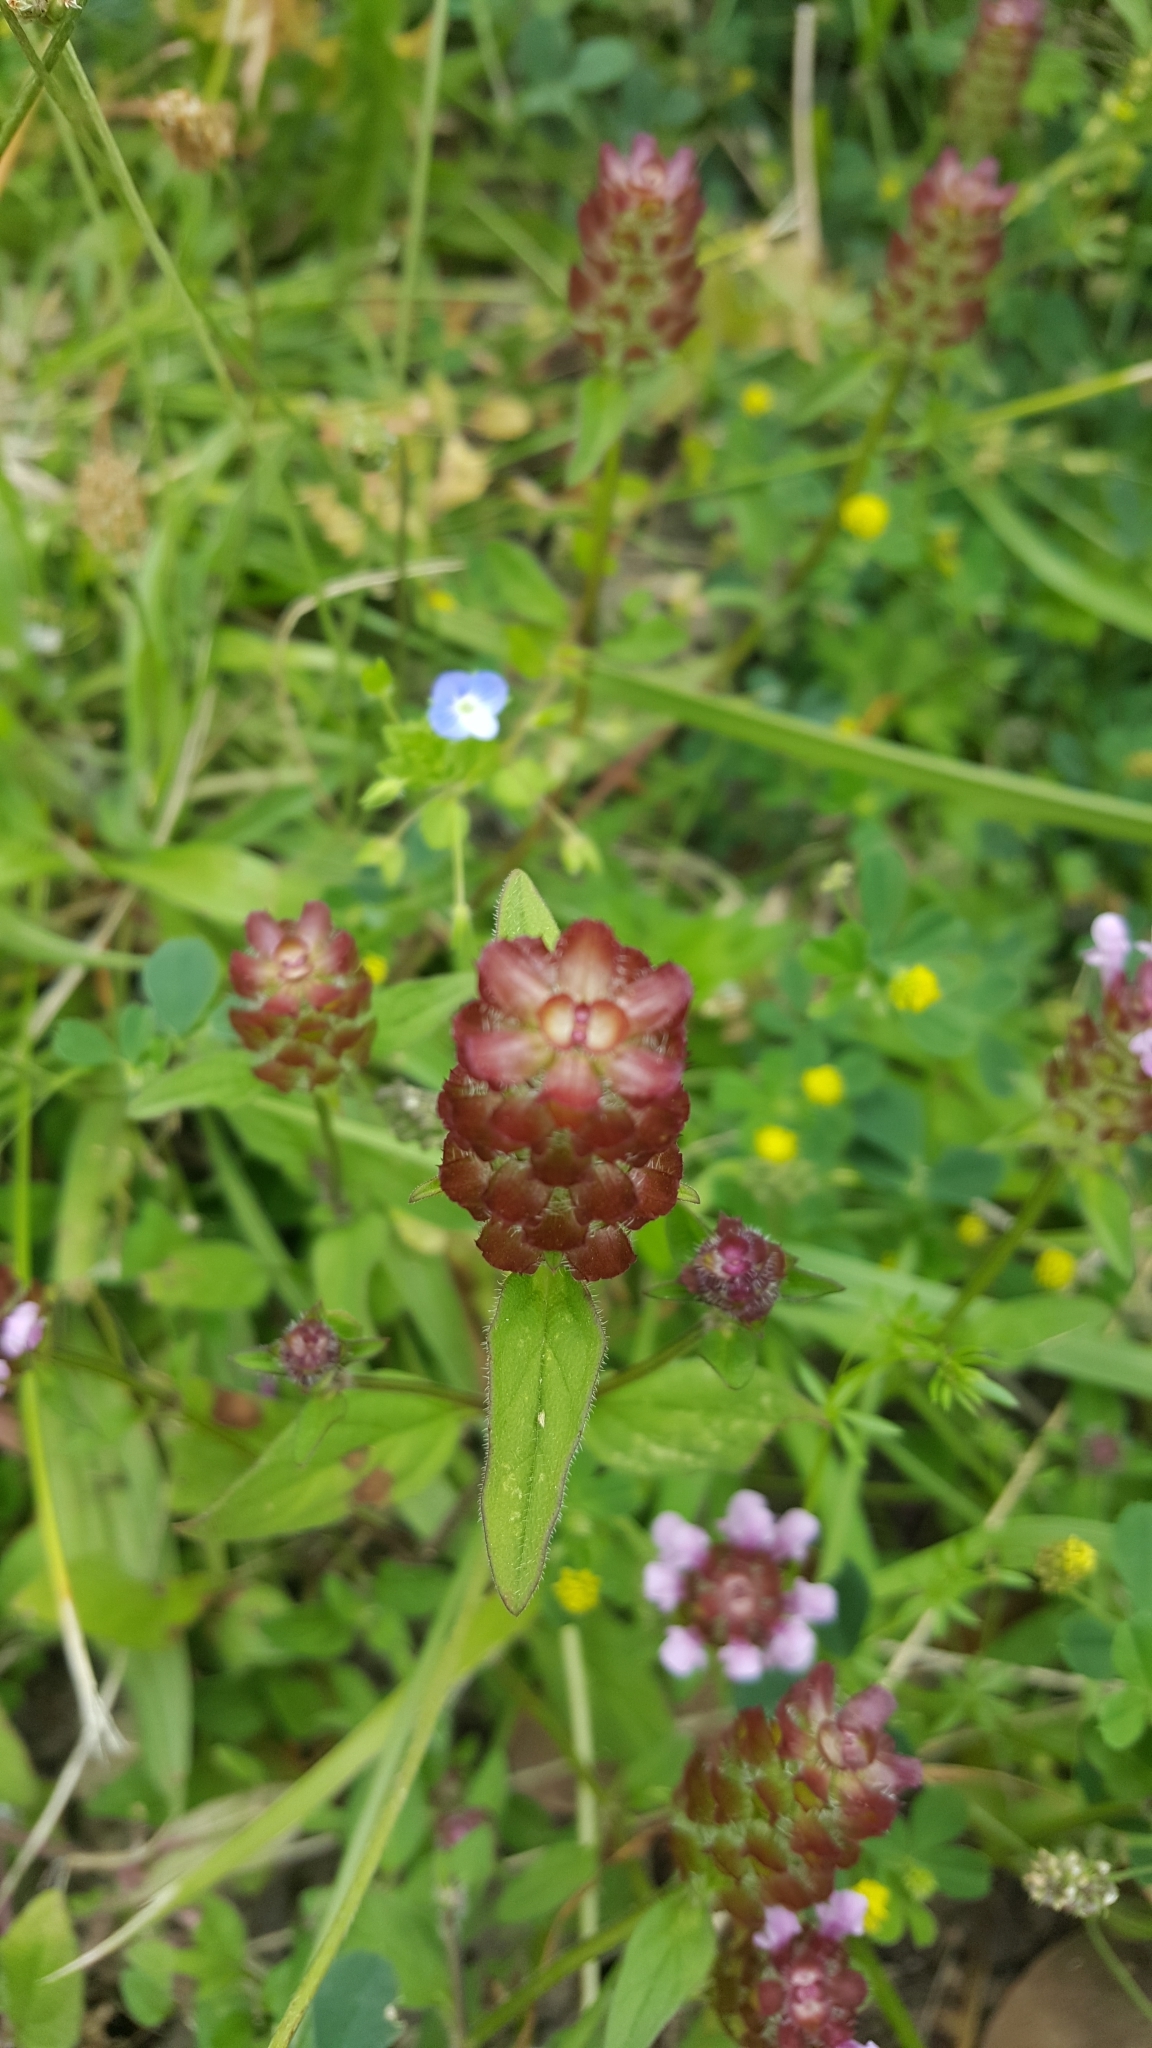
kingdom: Plantae
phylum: Tracheophyta
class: Magnoliopsida
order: Lamiales
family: Lamiaceae
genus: Prunella
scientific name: Prunella vulgaris
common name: Heal-all
